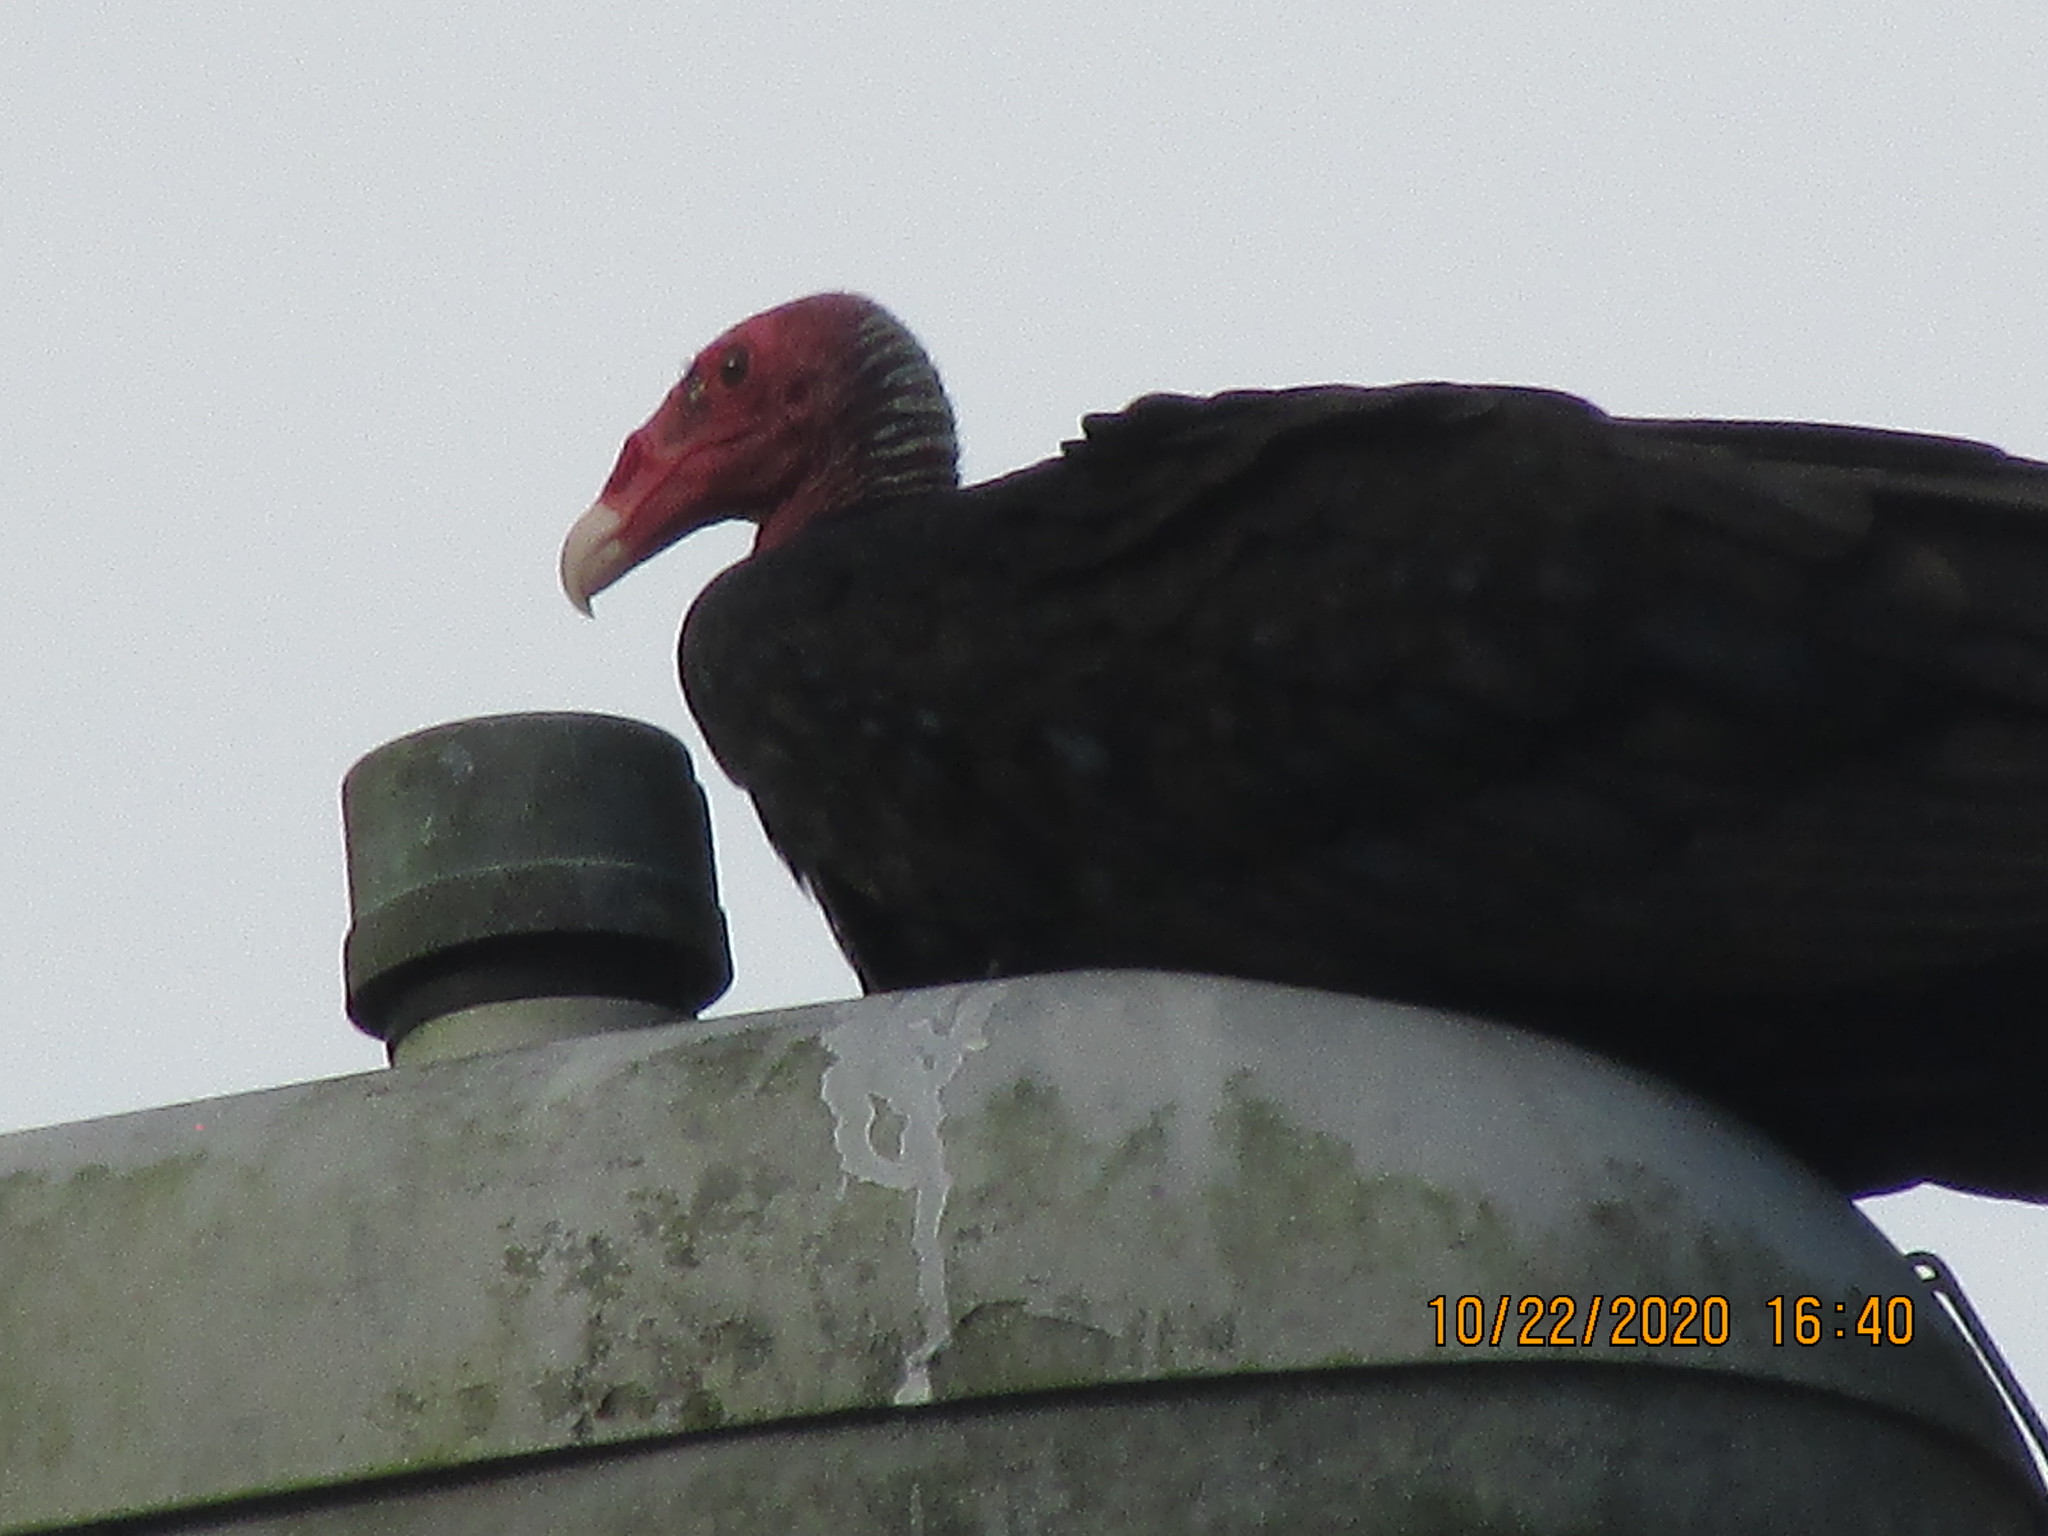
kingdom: Animalia
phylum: Chordata
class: Aves
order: Accipitriformes
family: Cathartidae
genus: Cathartes
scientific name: Cathartes aura
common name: Turkey vulture
